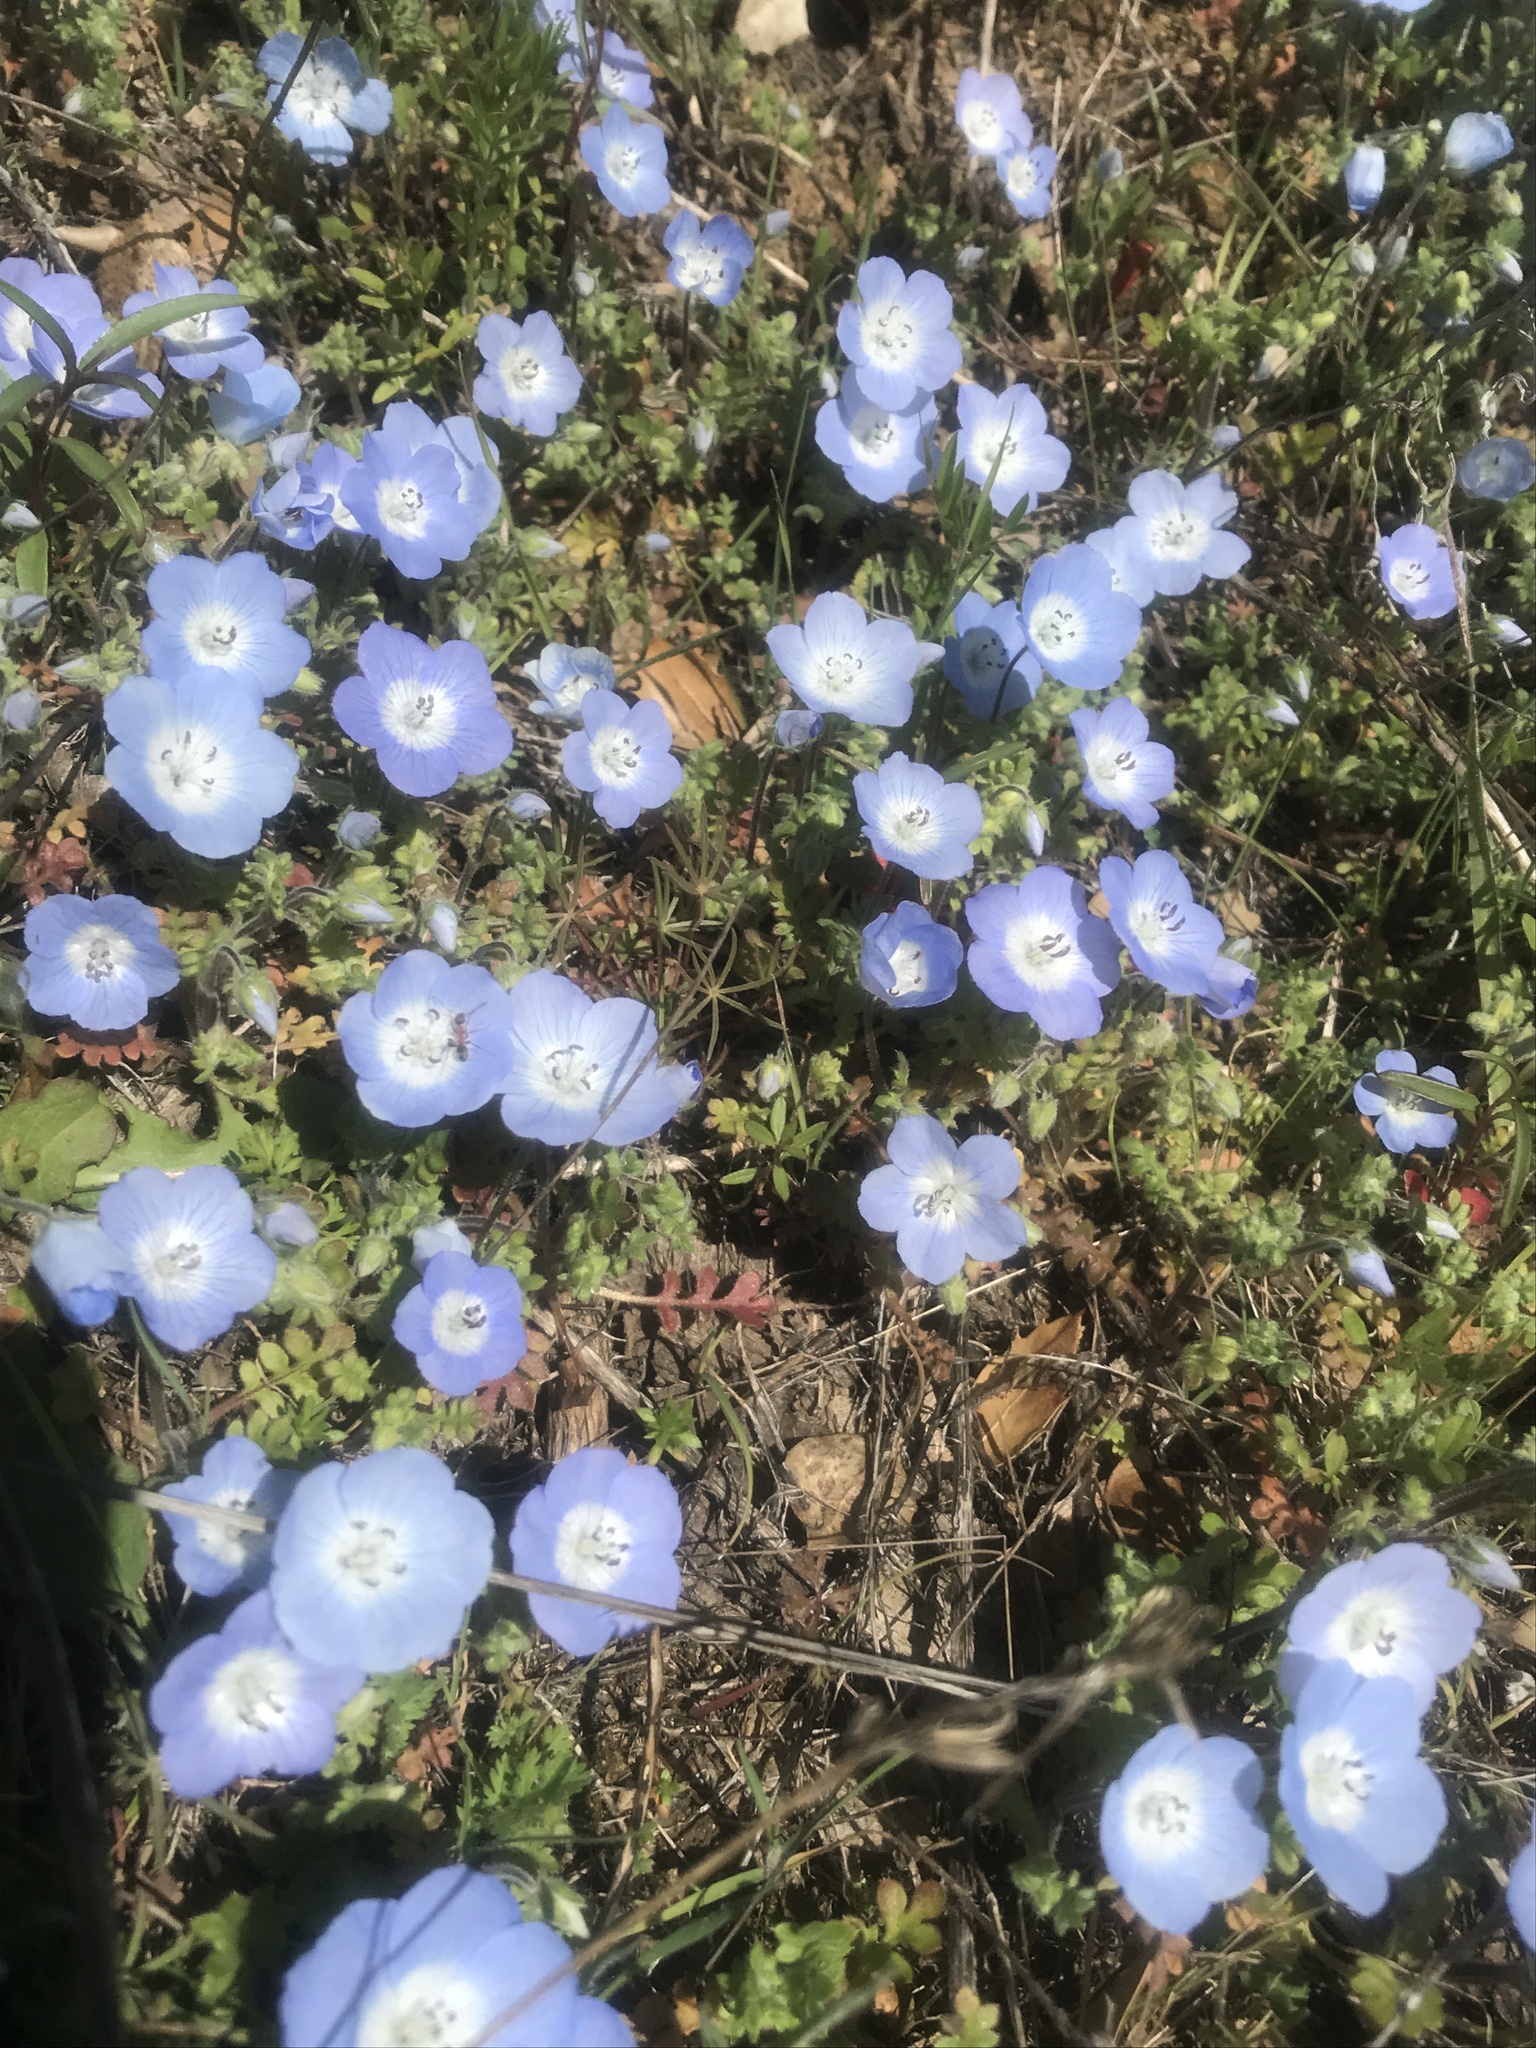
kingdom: Plantae
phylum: Tracheophyta
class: Magnoliopsida
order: Boraginales
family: Hydrophyllaceae
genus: Nemophila
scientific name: Nemophila menziesii
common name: Baby's-blue-eyes
